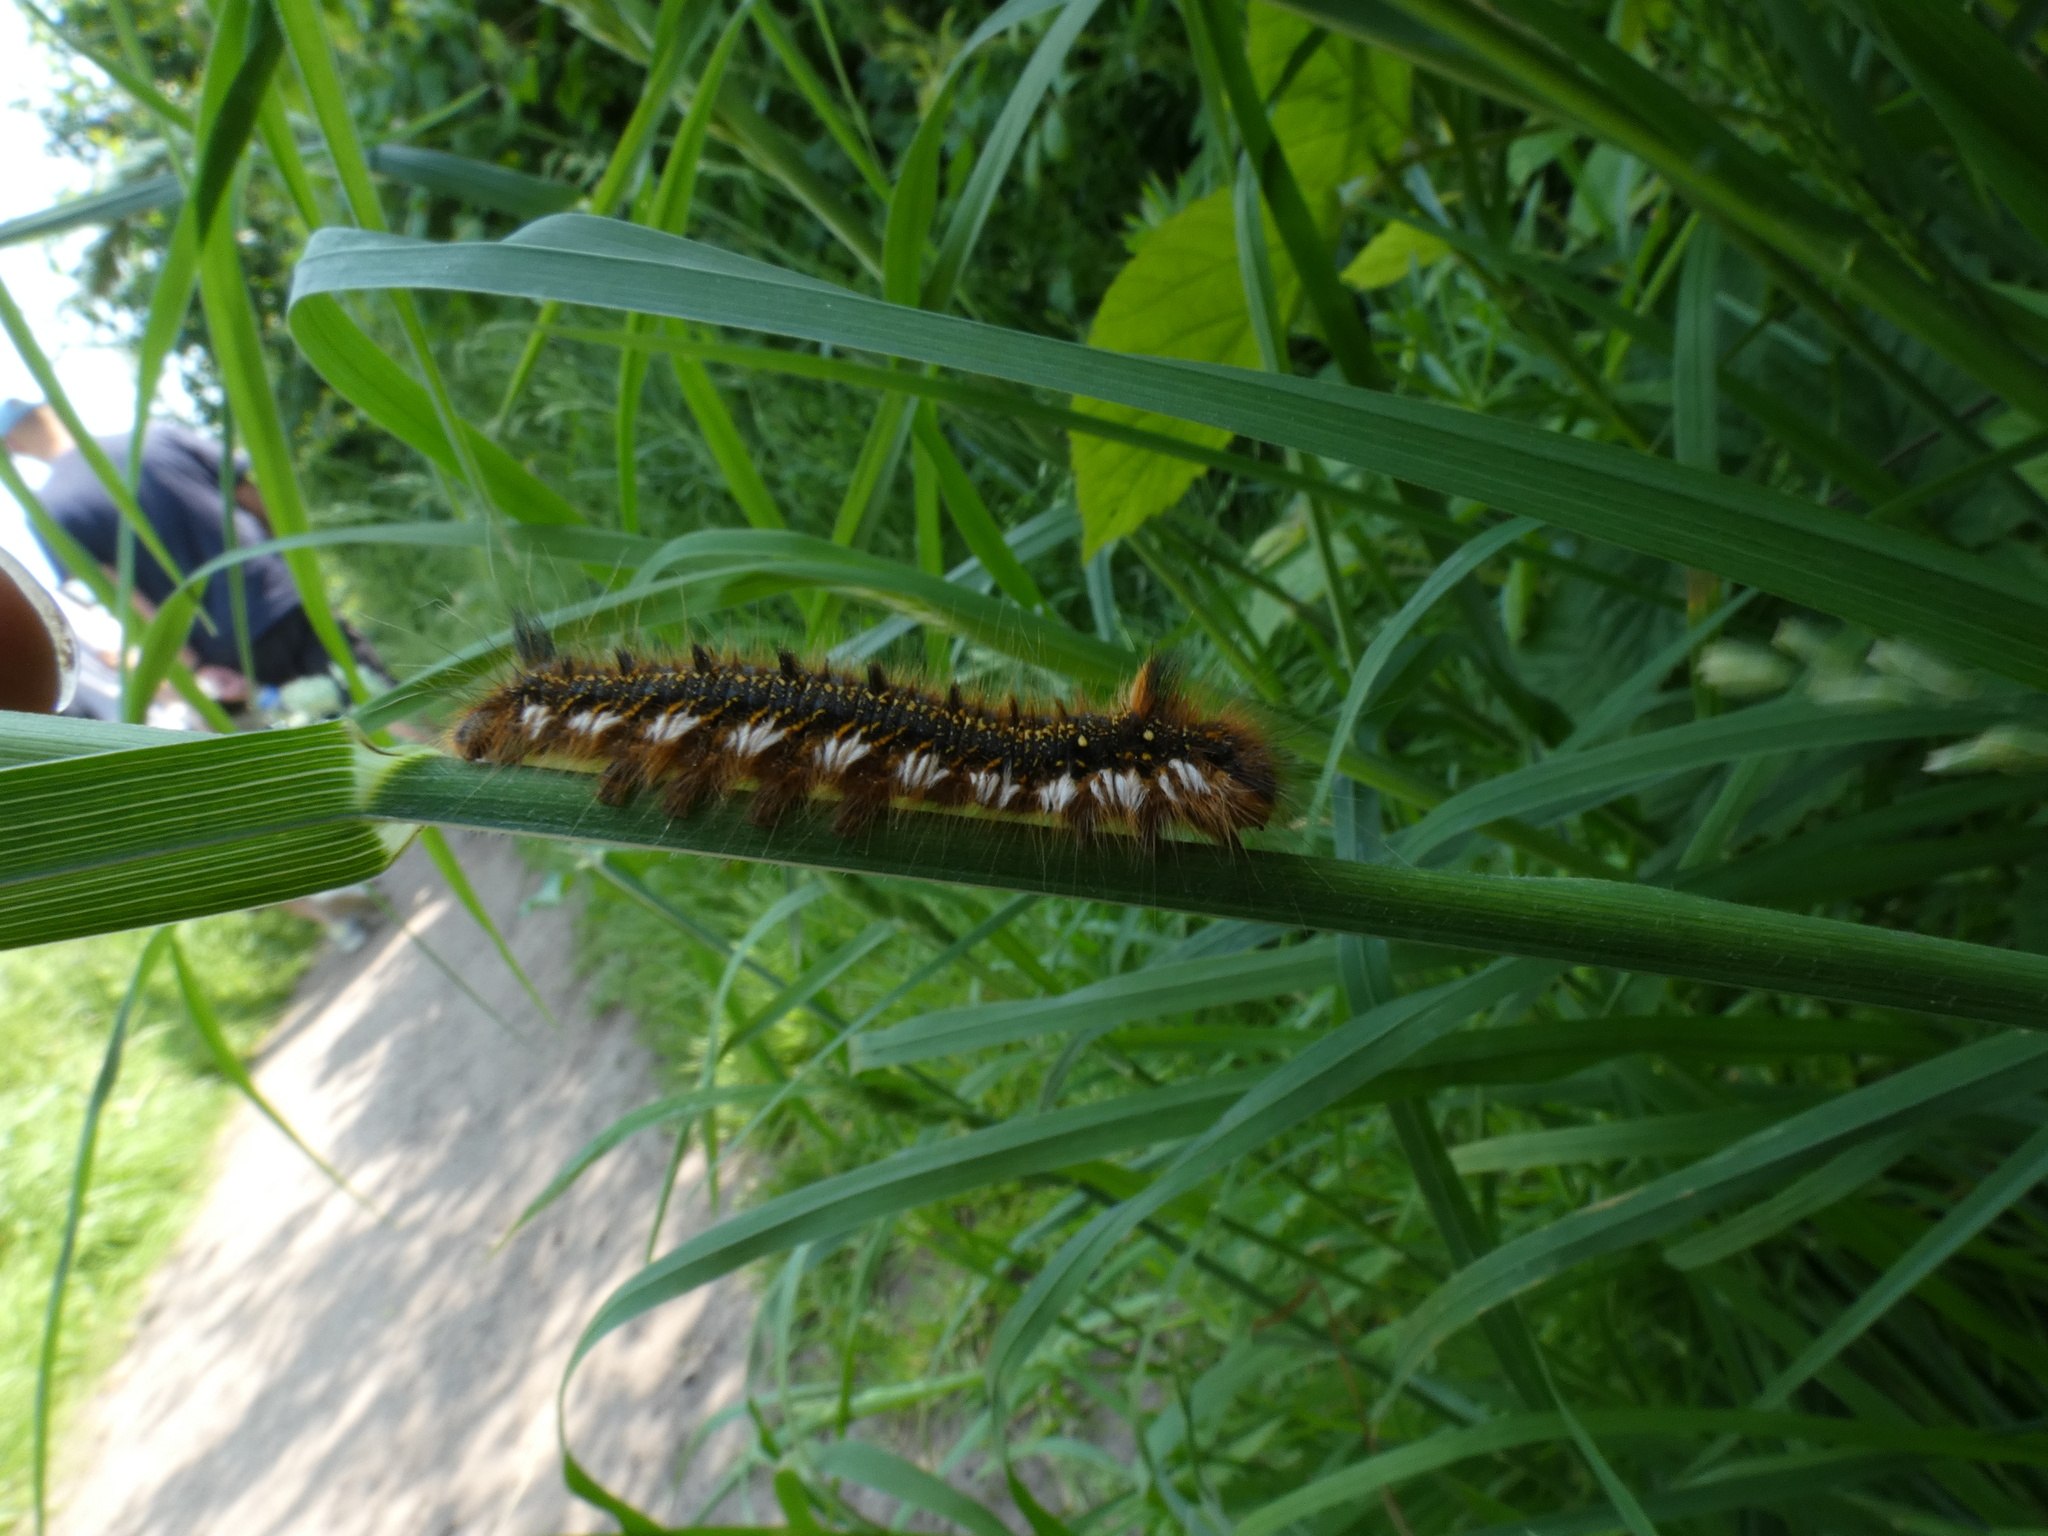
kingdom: Animalia
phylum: Arthropoda
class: Insecta
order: Lepidoptera
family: Lasiocampidae
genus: Euthrix
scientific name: Euthrix potatoria
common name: Drinker
